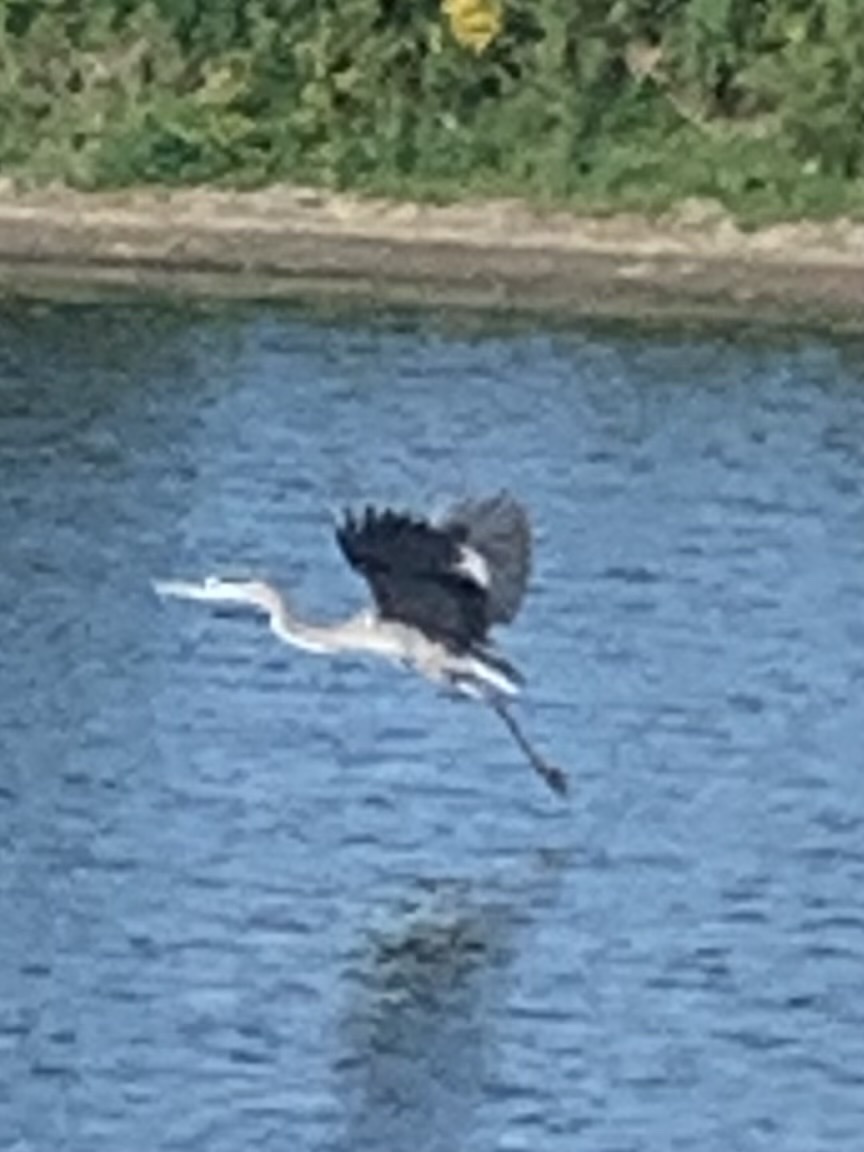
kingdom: Animalia
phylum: Chordata
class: Aves
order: Pelecaniformes
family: Ardeidae
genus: Ardea
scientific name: Ardea herodias
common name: Great blue heron
